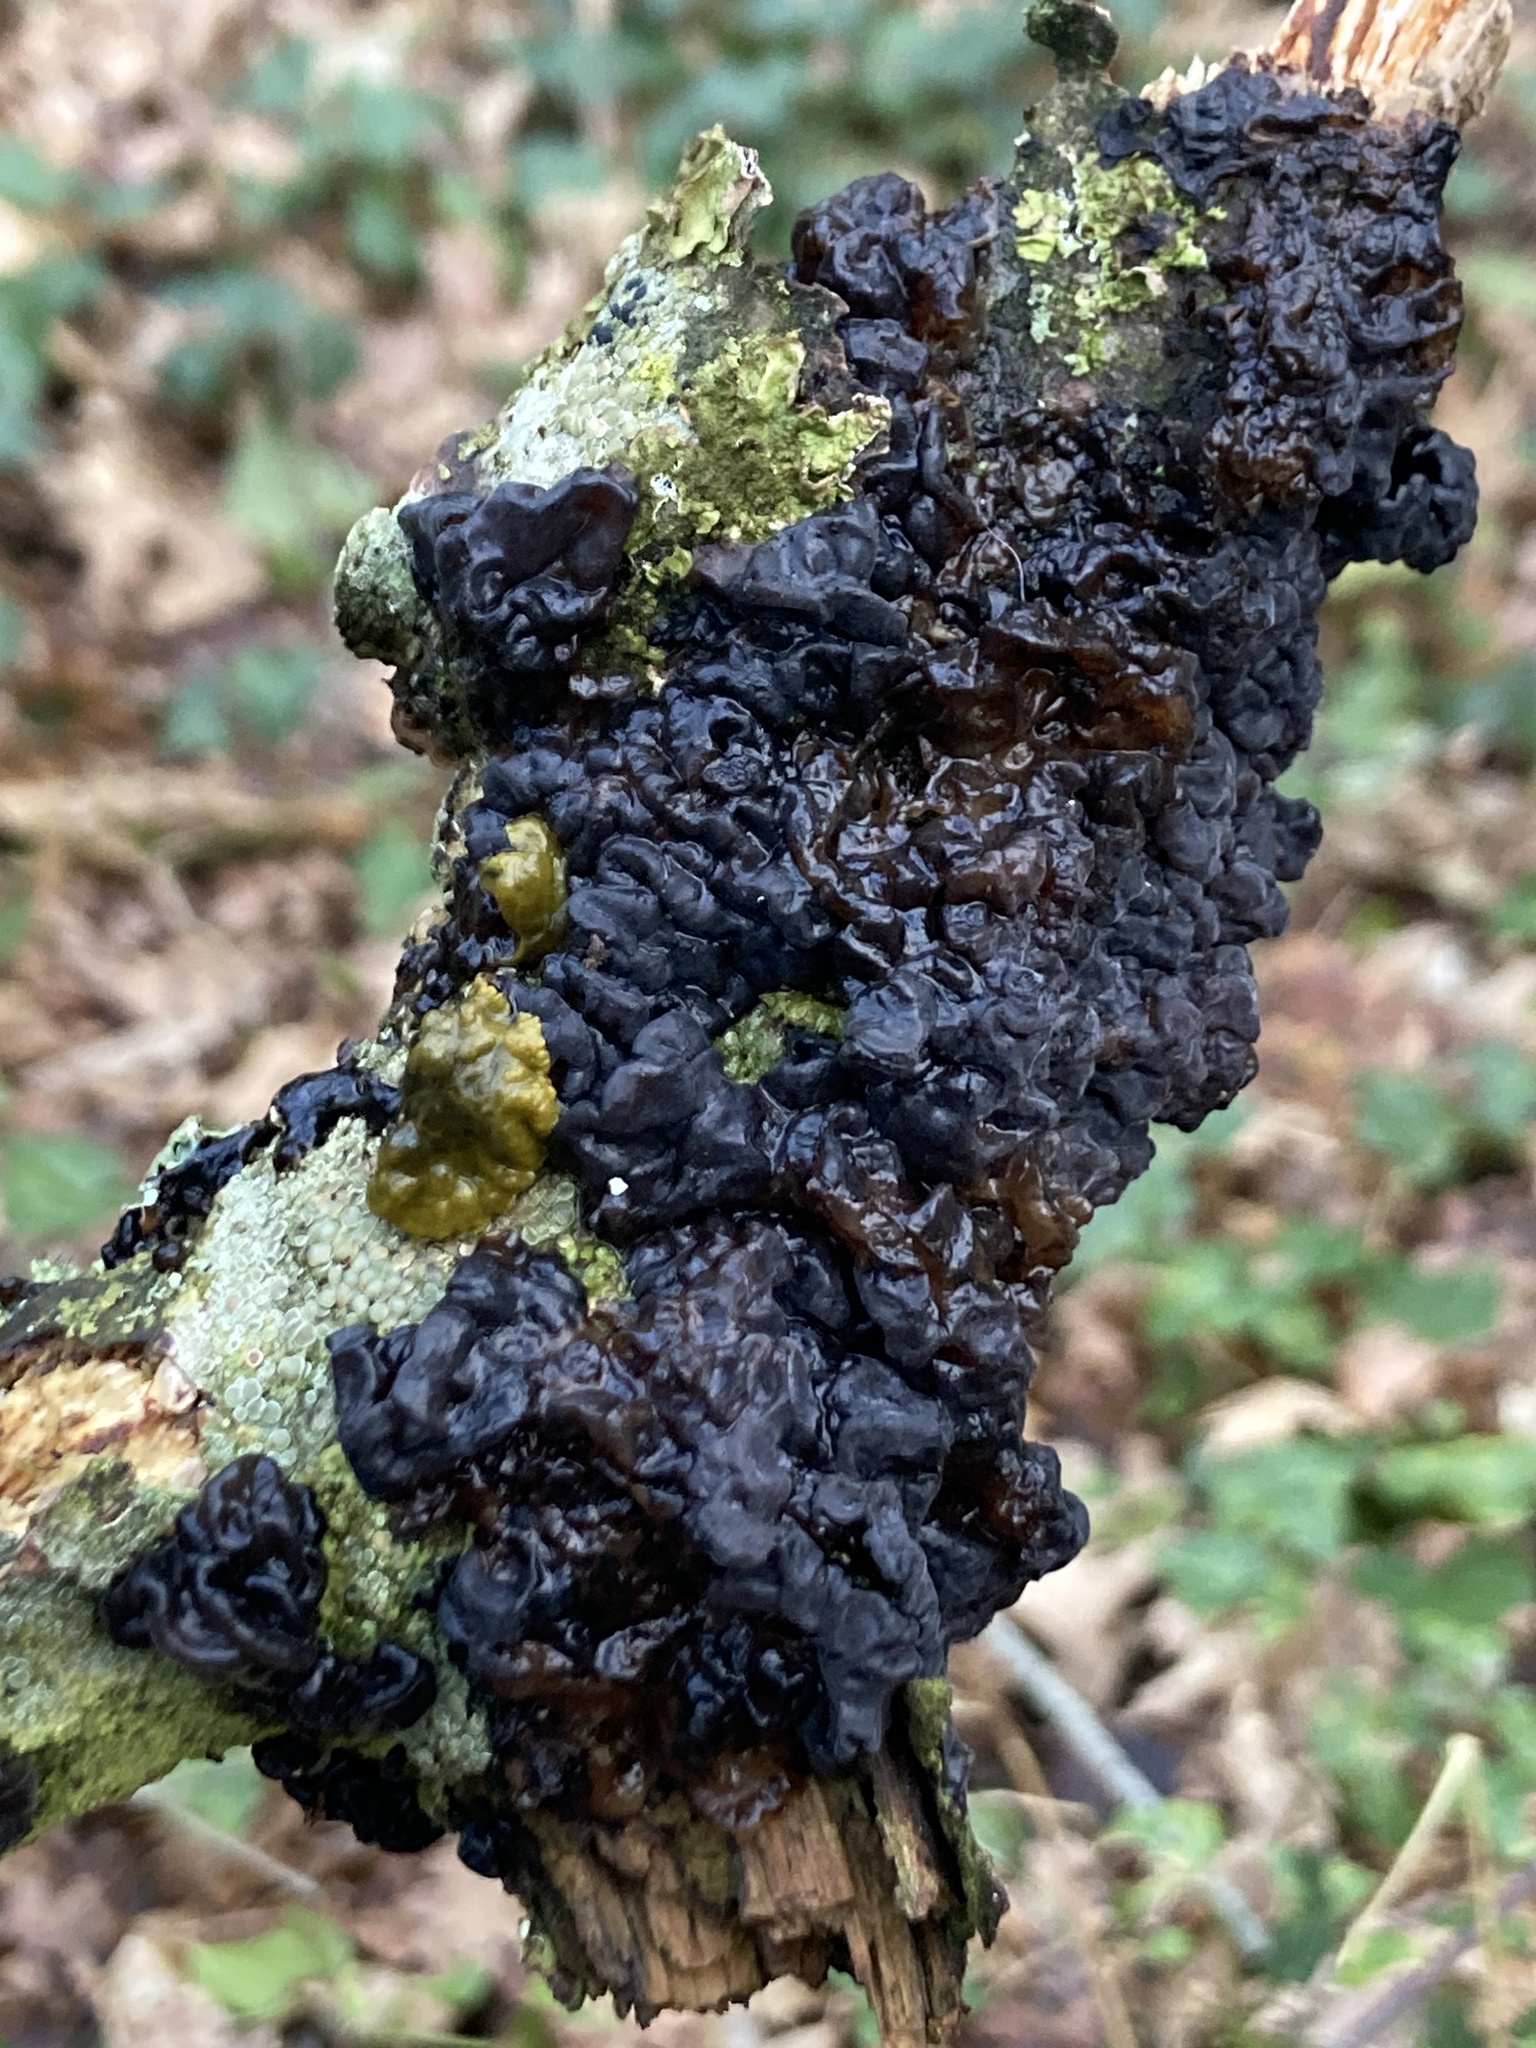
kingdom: Fungi
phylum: Basidiomycota
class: Agaricomycetes
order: Auriculariales
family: Auriculariaceae
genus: Exidia
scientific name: Exidia nigricans
